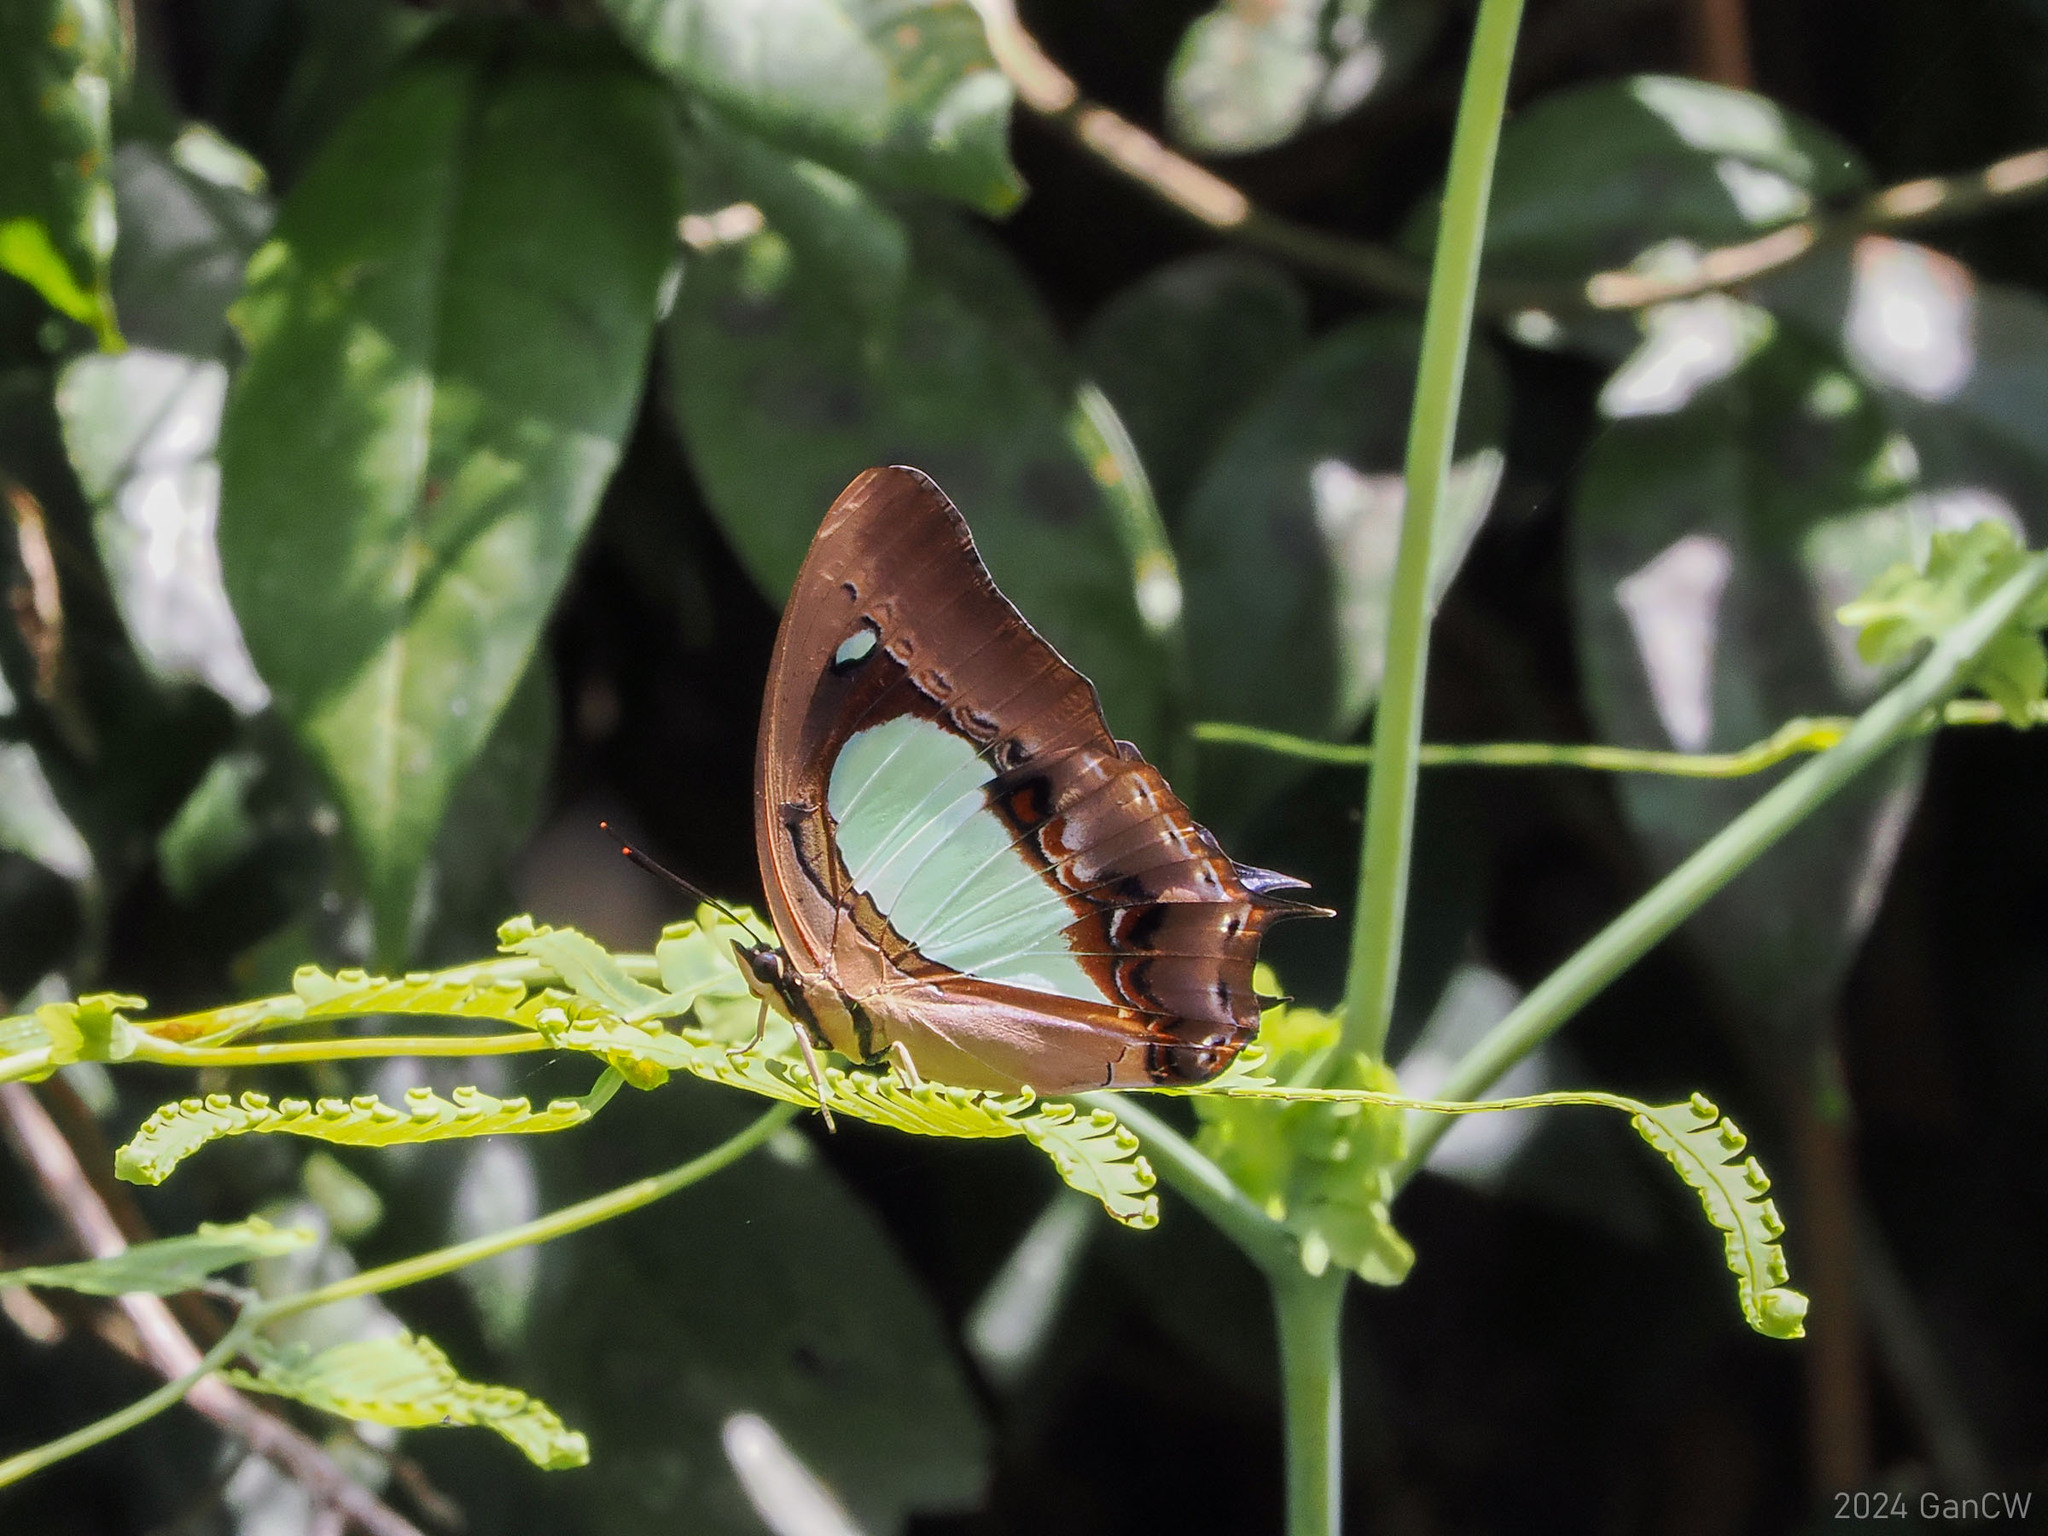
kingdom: Animalia
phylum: Arthropoda
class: Insecta
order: Lepidoptera
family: Nymphalidae
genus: Polyura
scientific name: Polyura hebe
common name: Plain nawab
